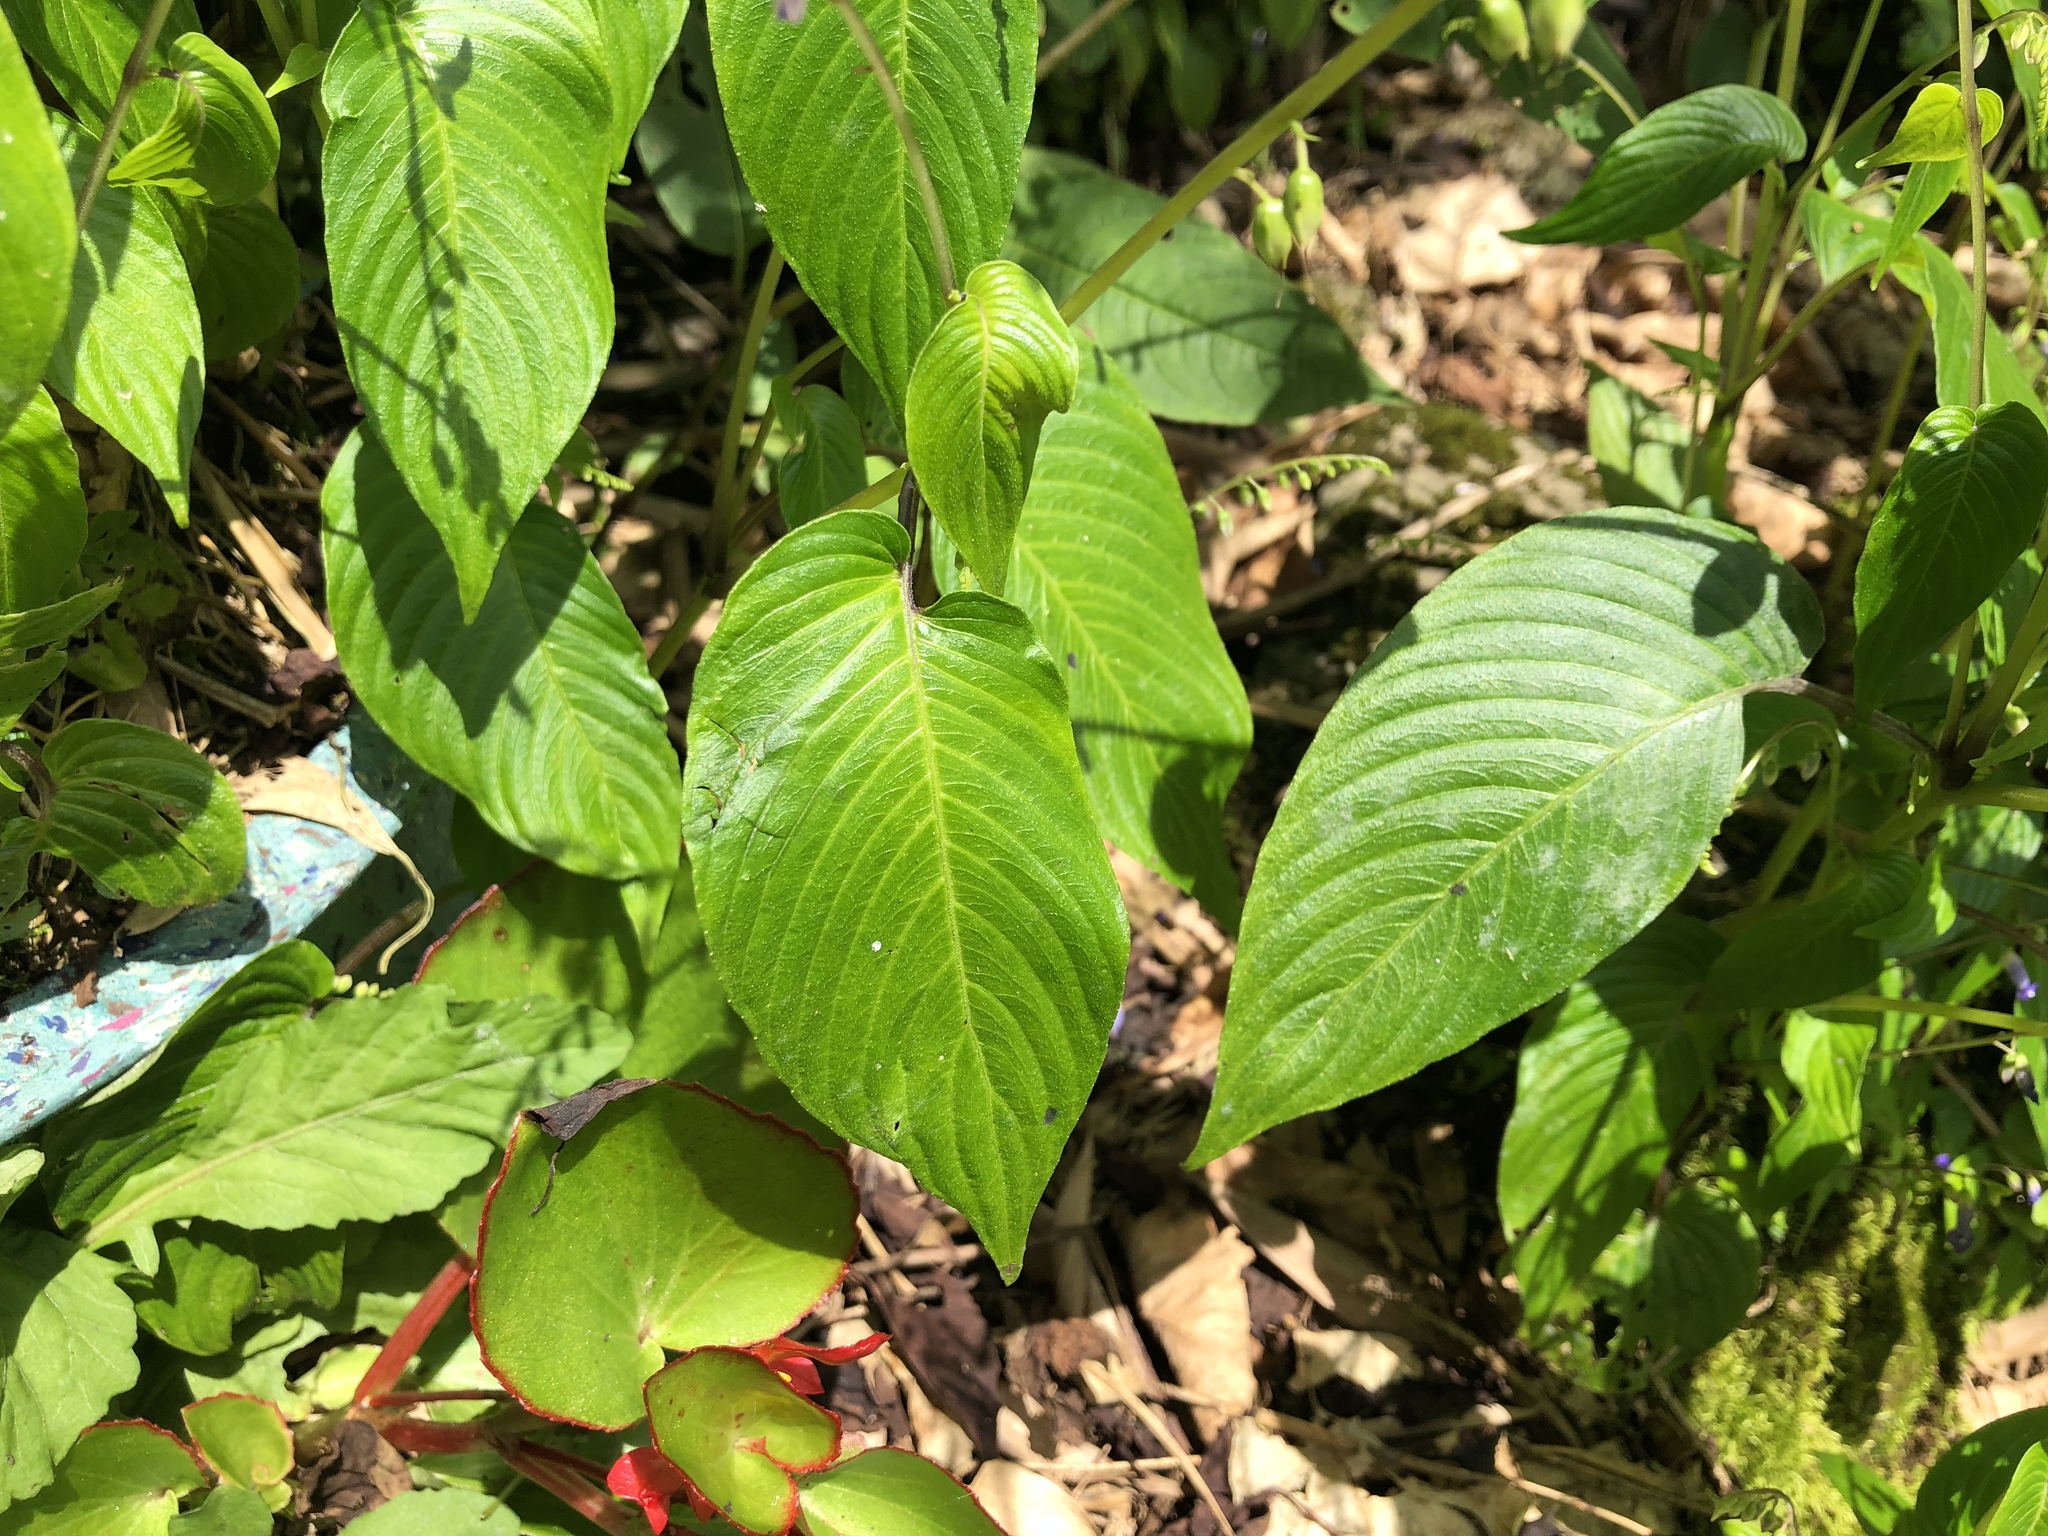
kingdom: Plantae
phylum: Tracheophyta
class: Magnoliopsida
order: Lamiales
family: Gesneriaceae
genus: Rhynchoglossum
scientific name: Rhynchoglossum obliquum
